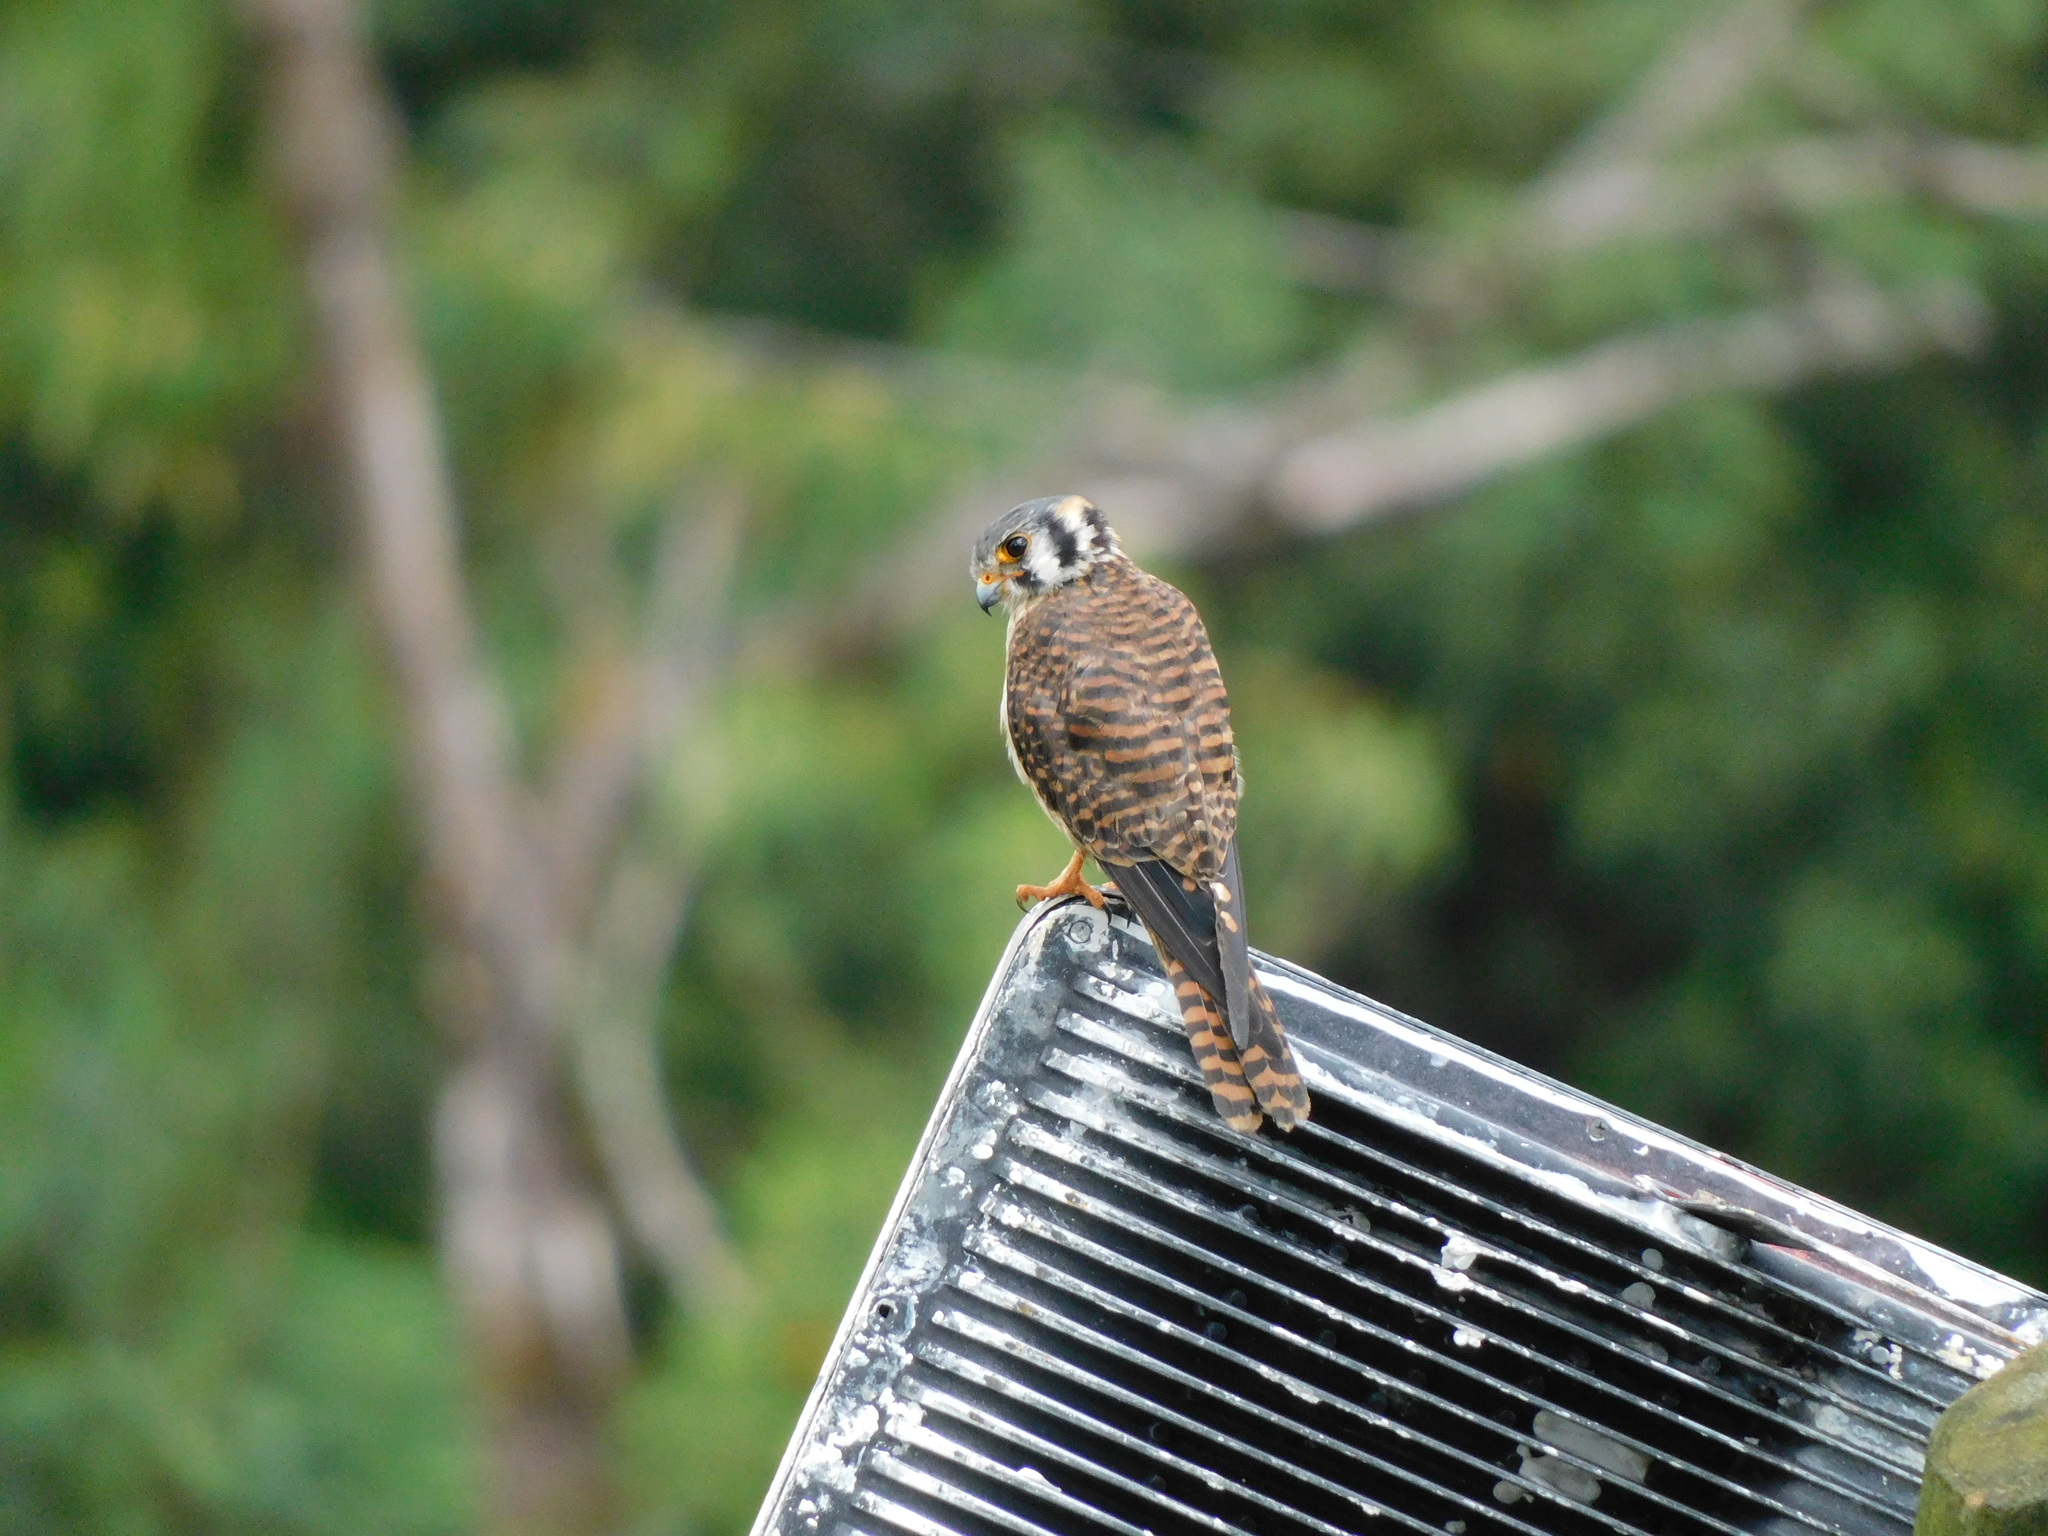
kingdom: Animalia
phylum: Chordata
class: Aves
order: Falconiformes
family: Falconidae
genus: Falco
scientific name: Falco sparverius
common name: American kestrel
